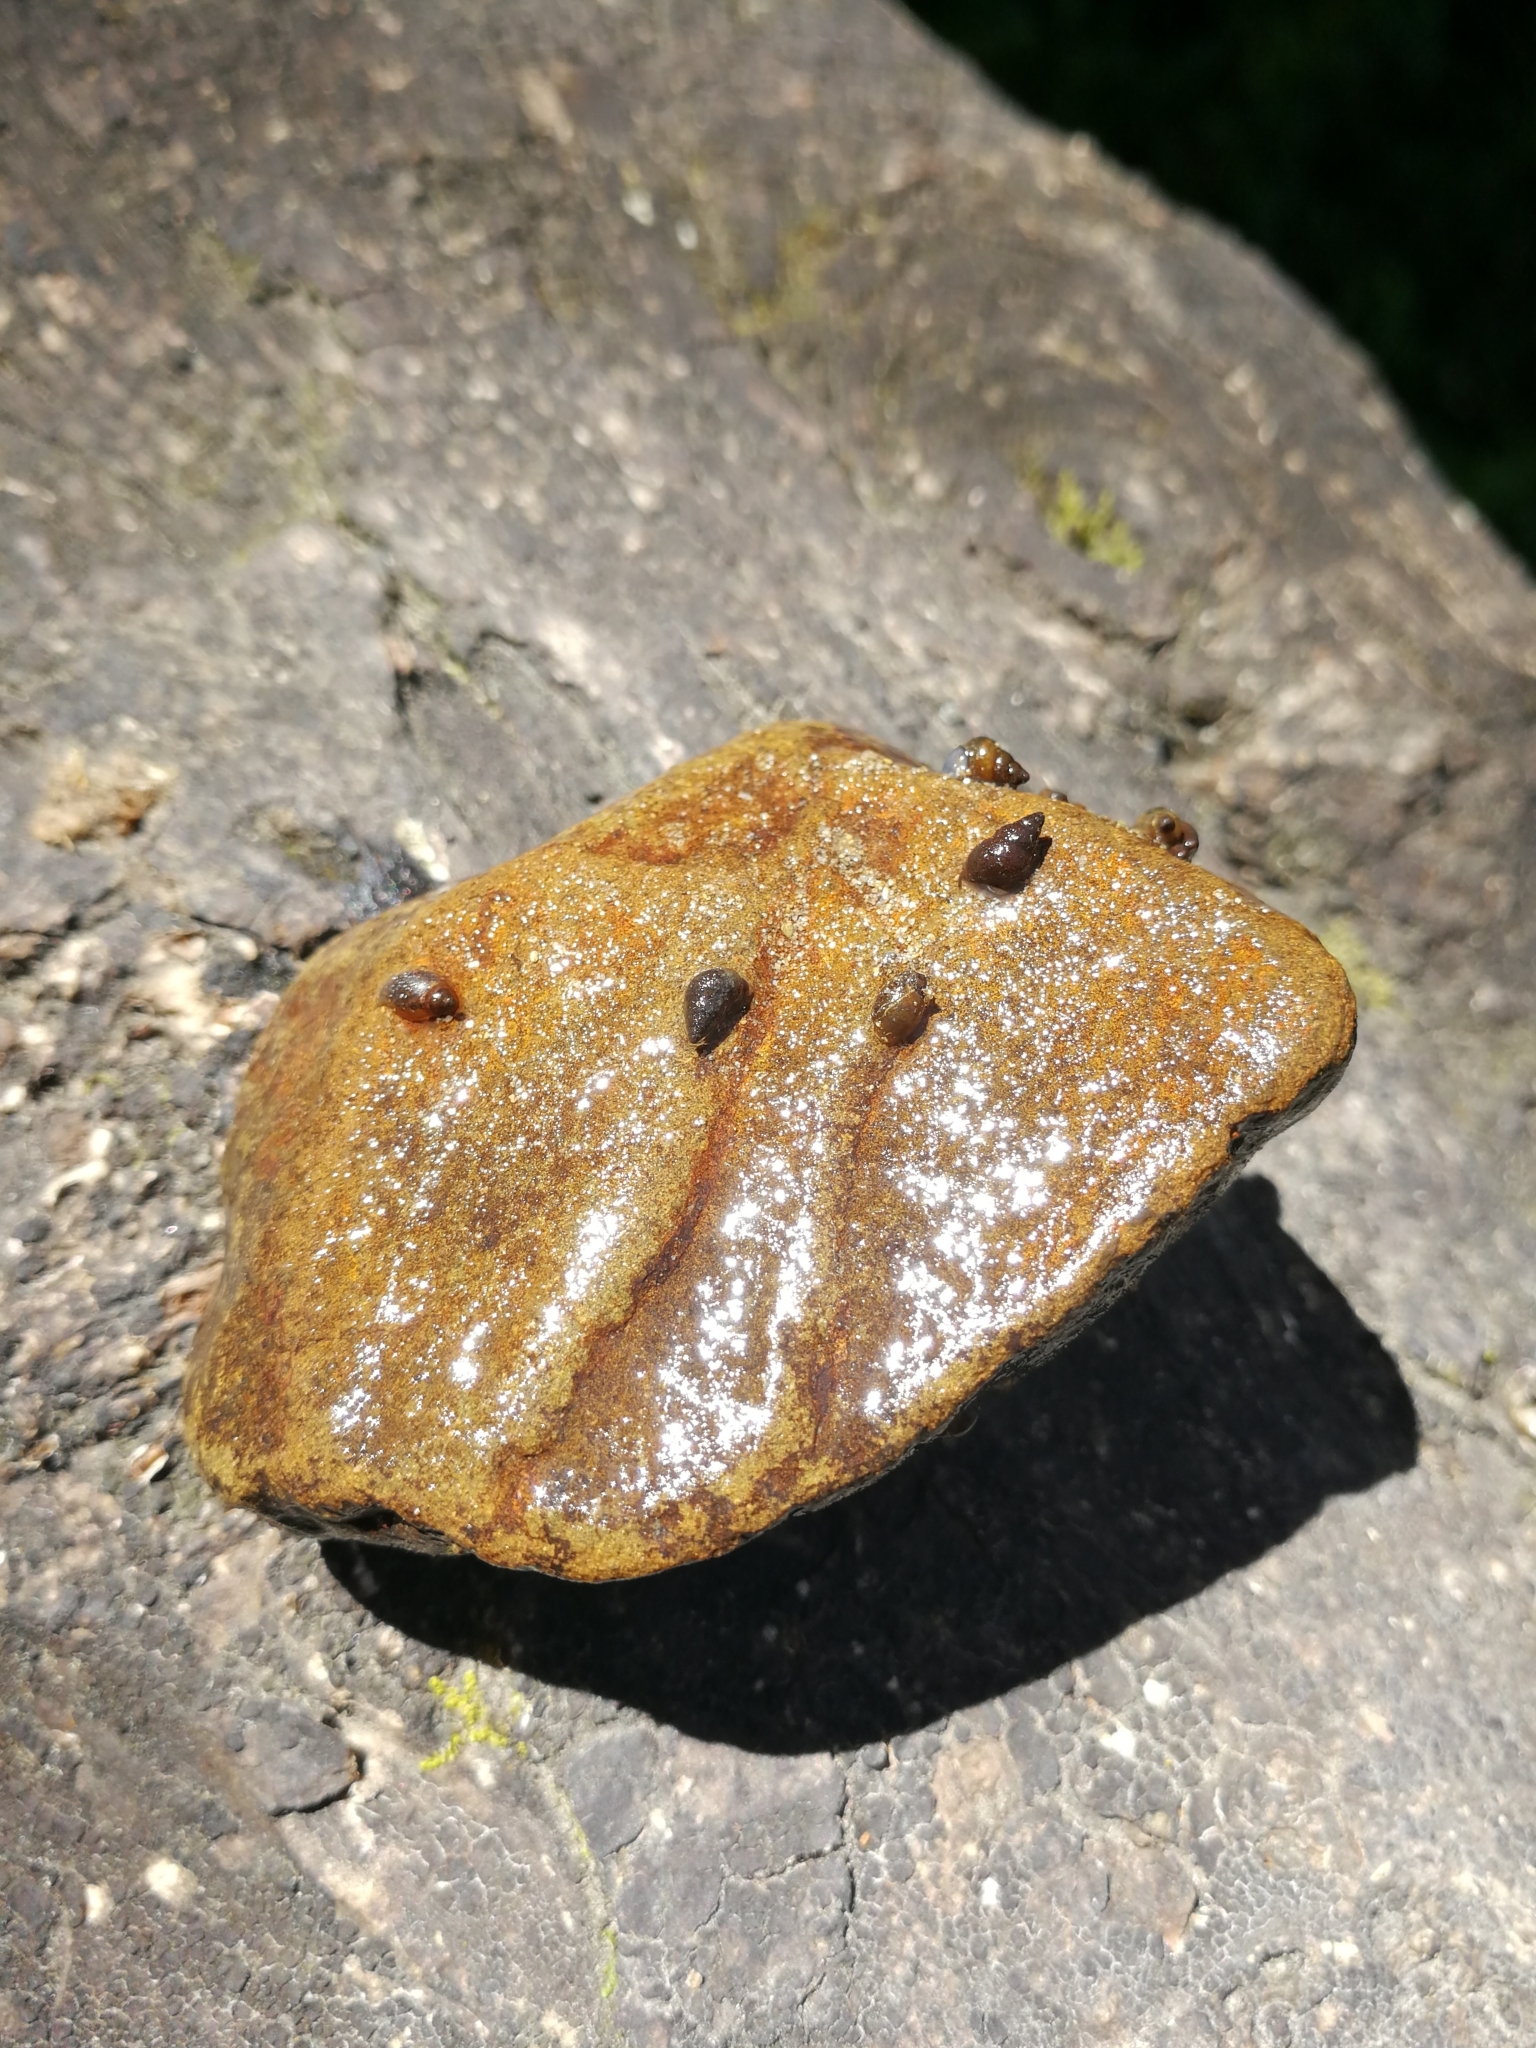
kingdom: Animalia
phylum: Mollusca
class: Gastropoda
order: Littorinimorpha
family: Tateidae
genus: Potamopyrgus
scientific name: Potamopyrgus antipodarum
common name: Jenkins' spire snail
